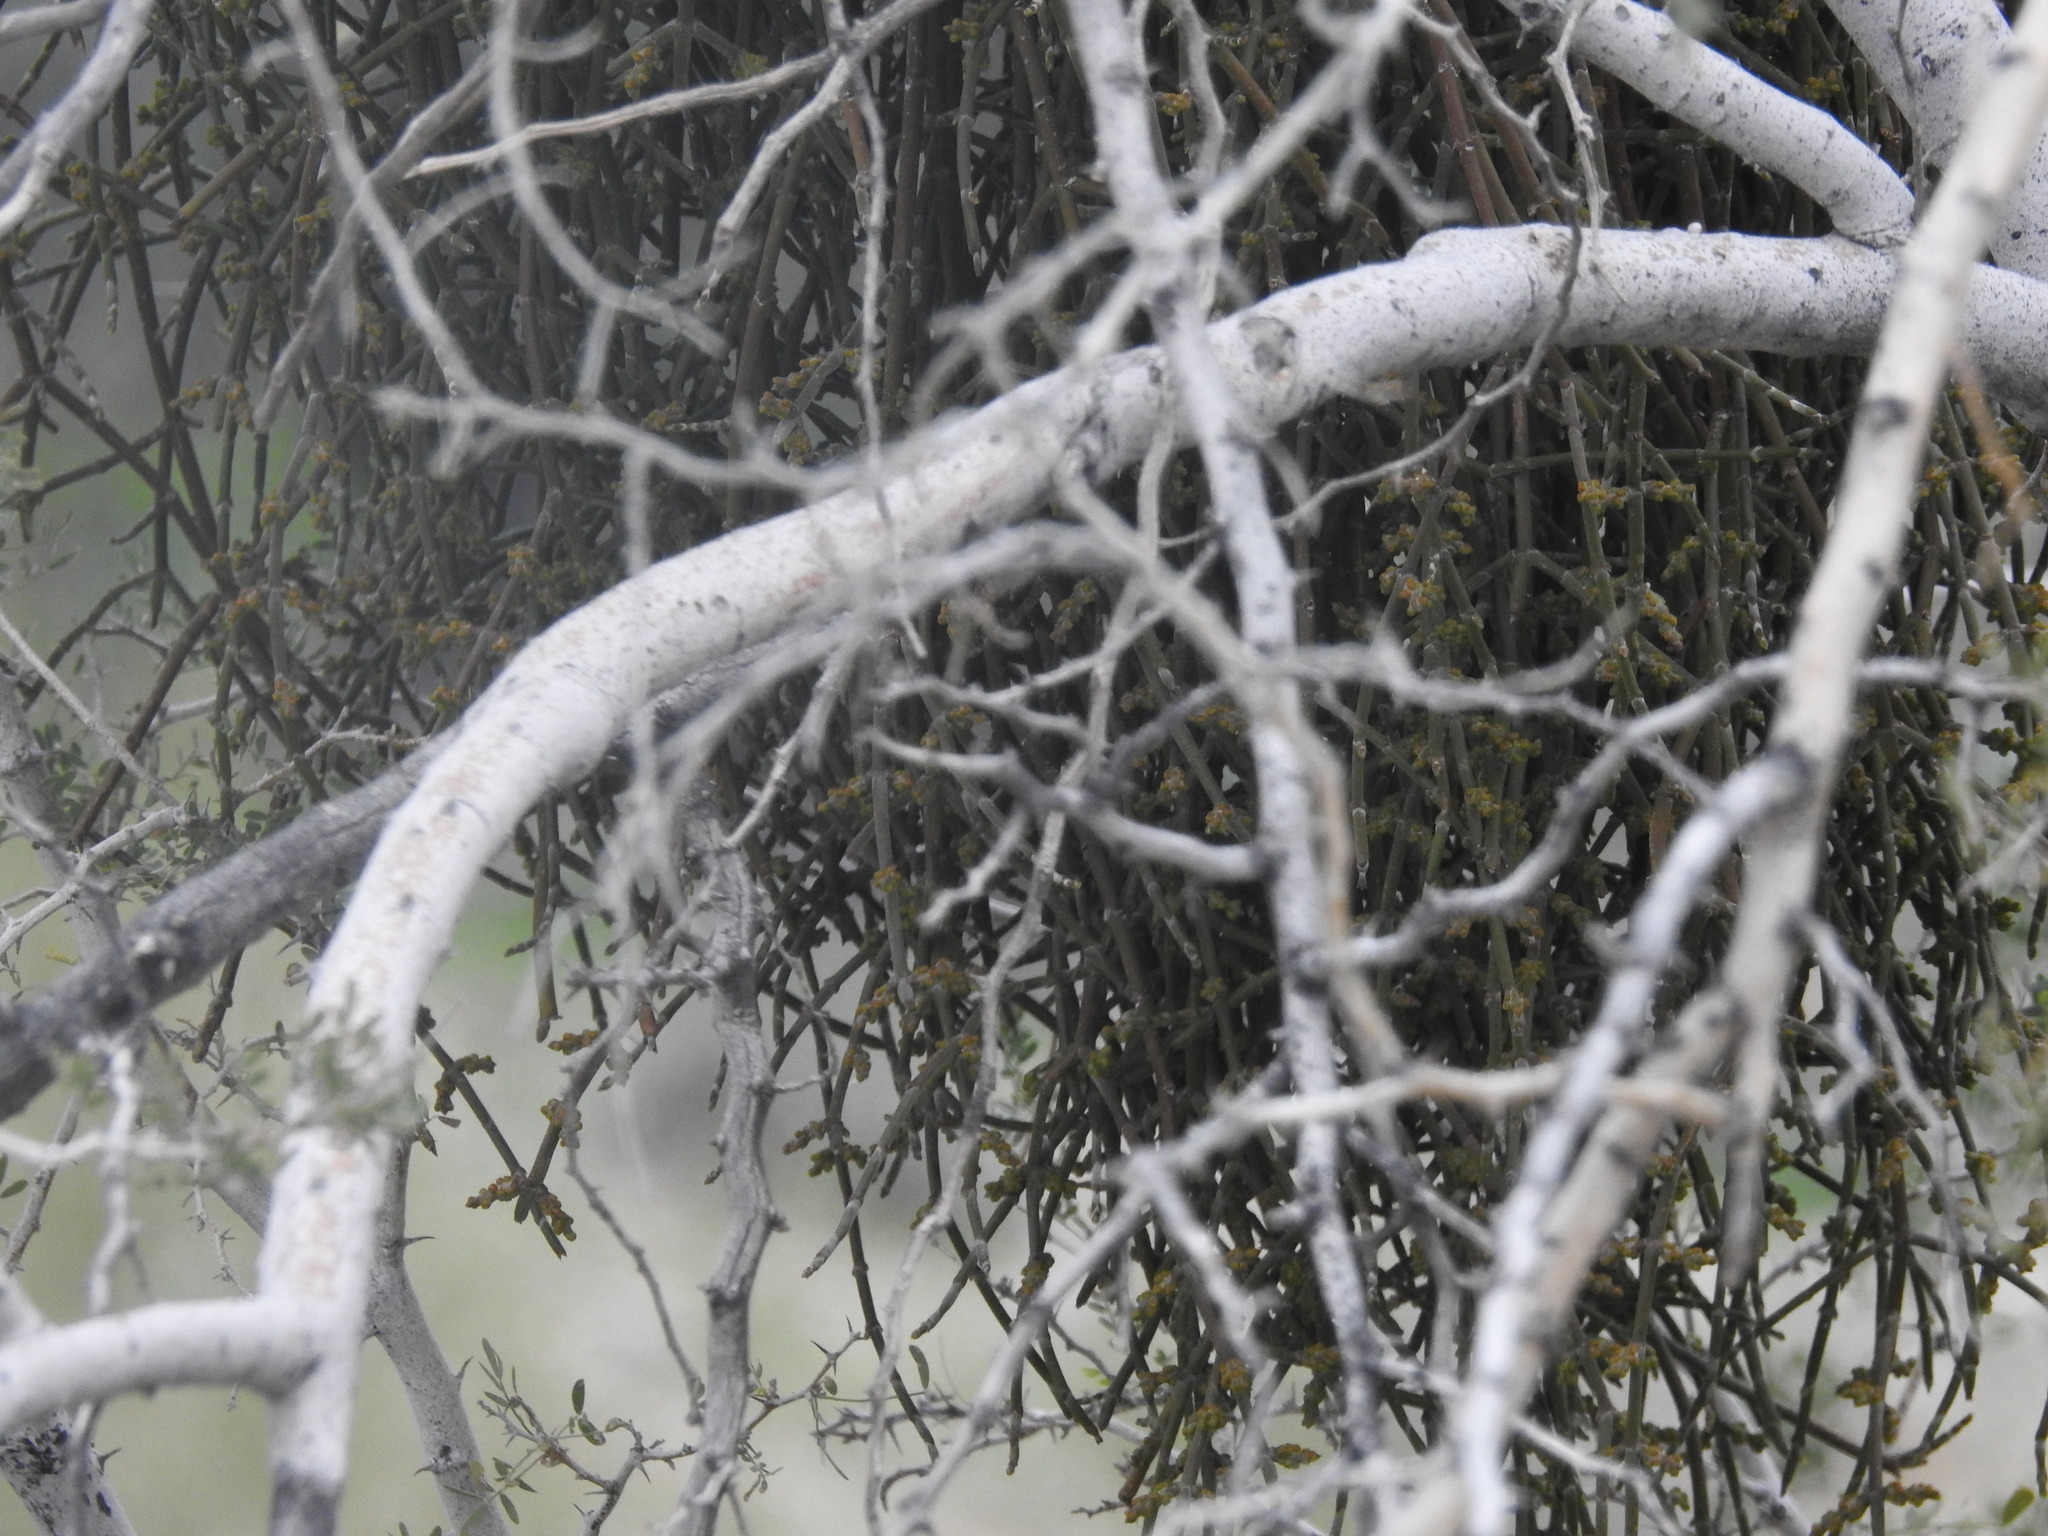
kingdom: Plantae
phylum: Tracheophyta
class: Magnoliopsida
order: Santalales
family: Viscaceae
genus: Phoradendron
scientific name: Phoradendron californicum
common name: Acacia mistletoe
